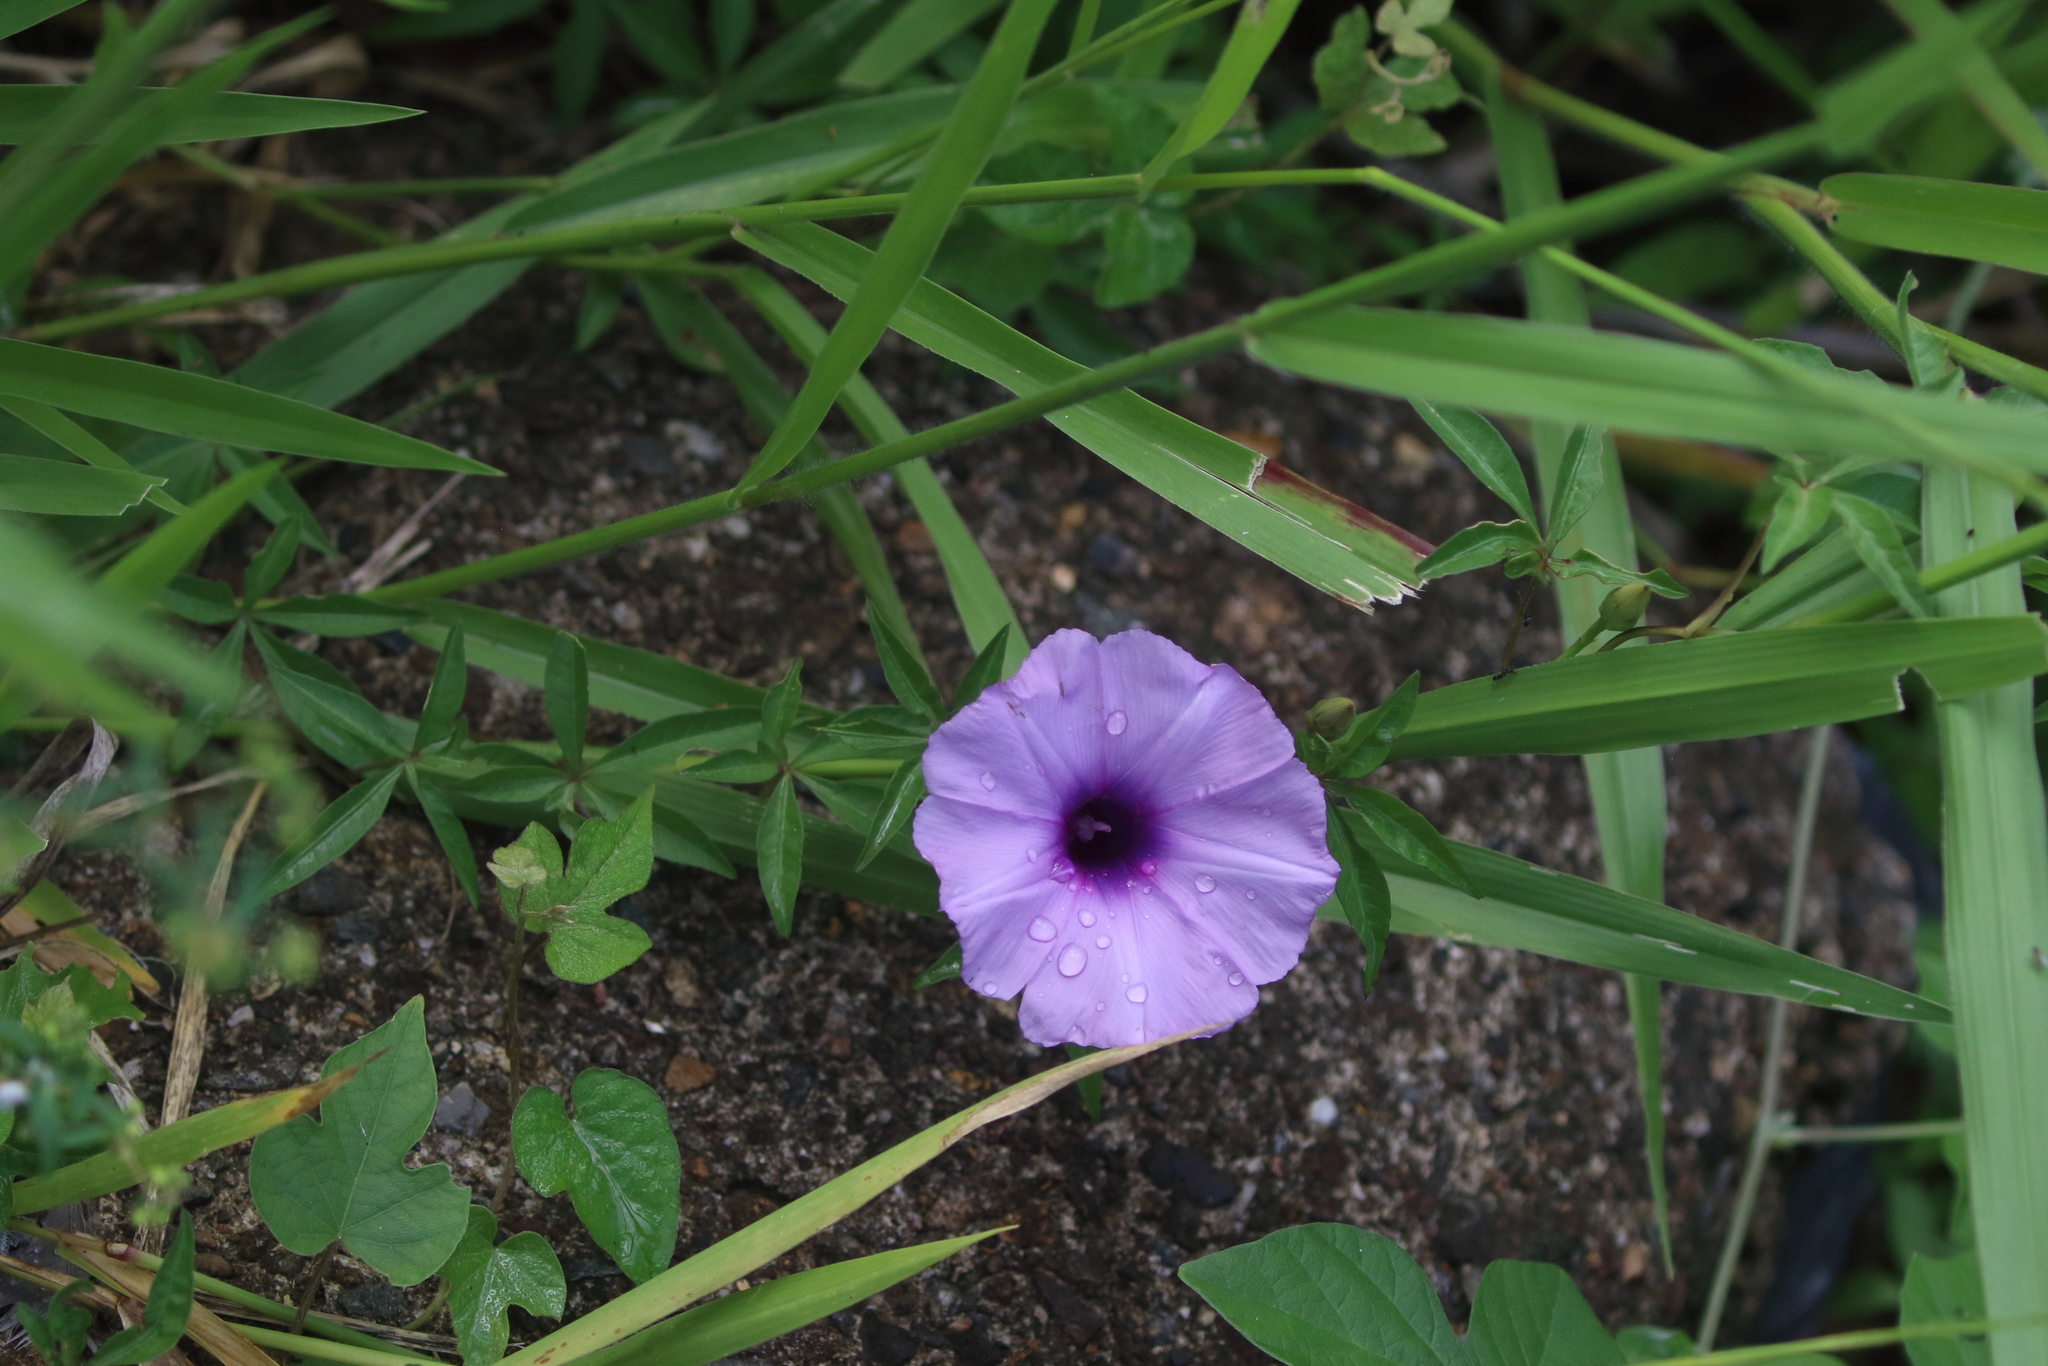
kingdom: Plantae
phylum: Tracheophyta
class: Magnoliopsida
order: Solanales
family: Convolvulaceae
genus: Ipomoea
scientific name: Ipomoea cairica
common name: Mile a minute vine
